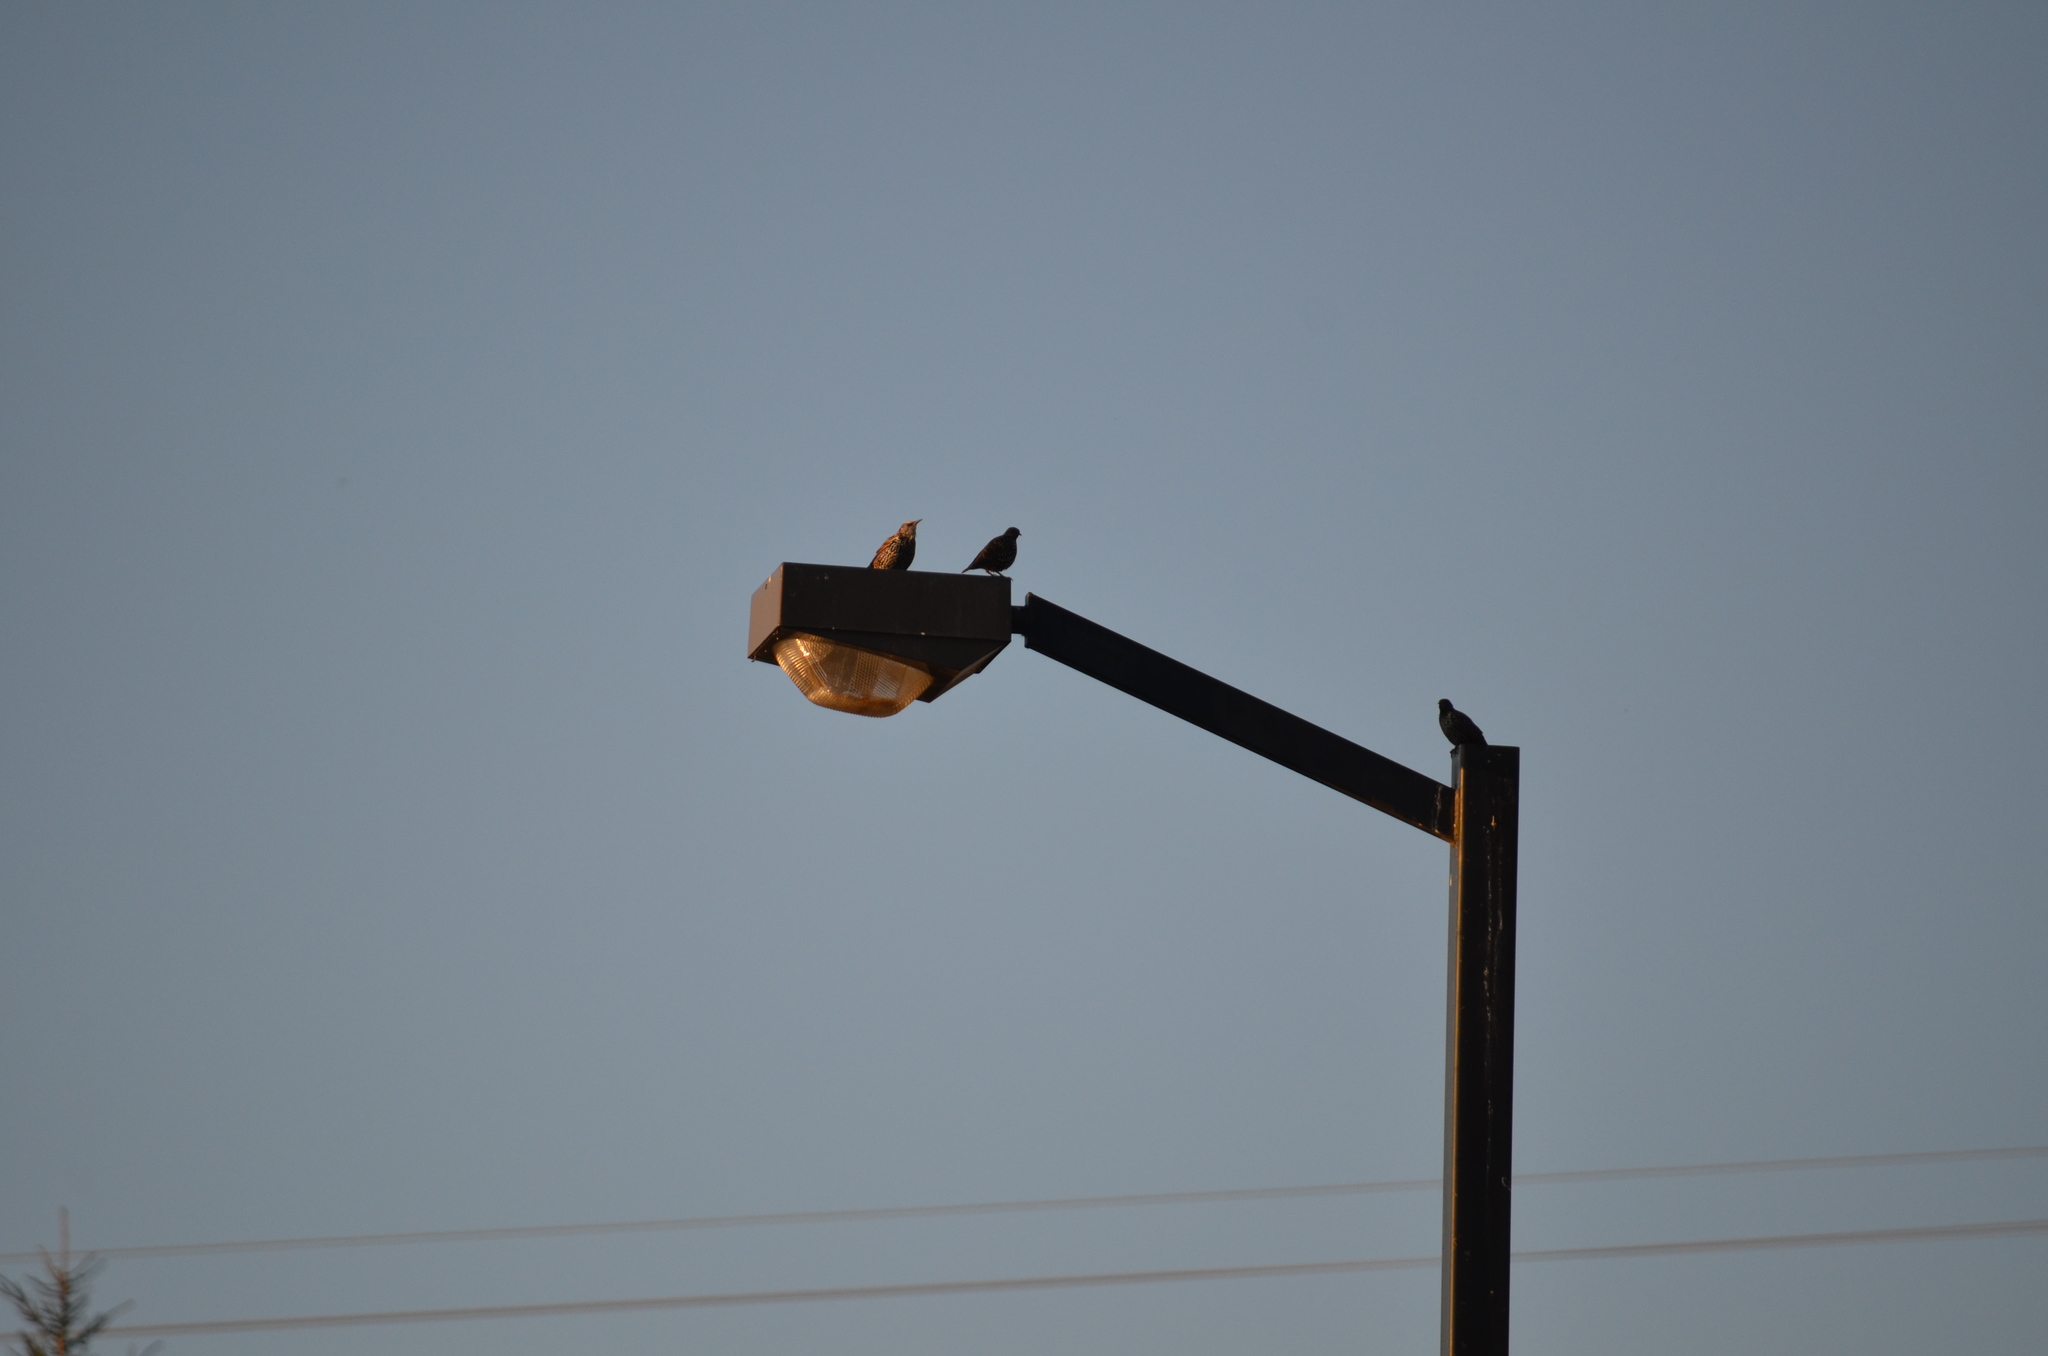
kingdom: Animalia
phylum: Chordata
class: Aves
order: Passeriformes
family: Sturnidae
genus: Sturnus
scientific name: Sturnus vulgaris
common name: Common starling
